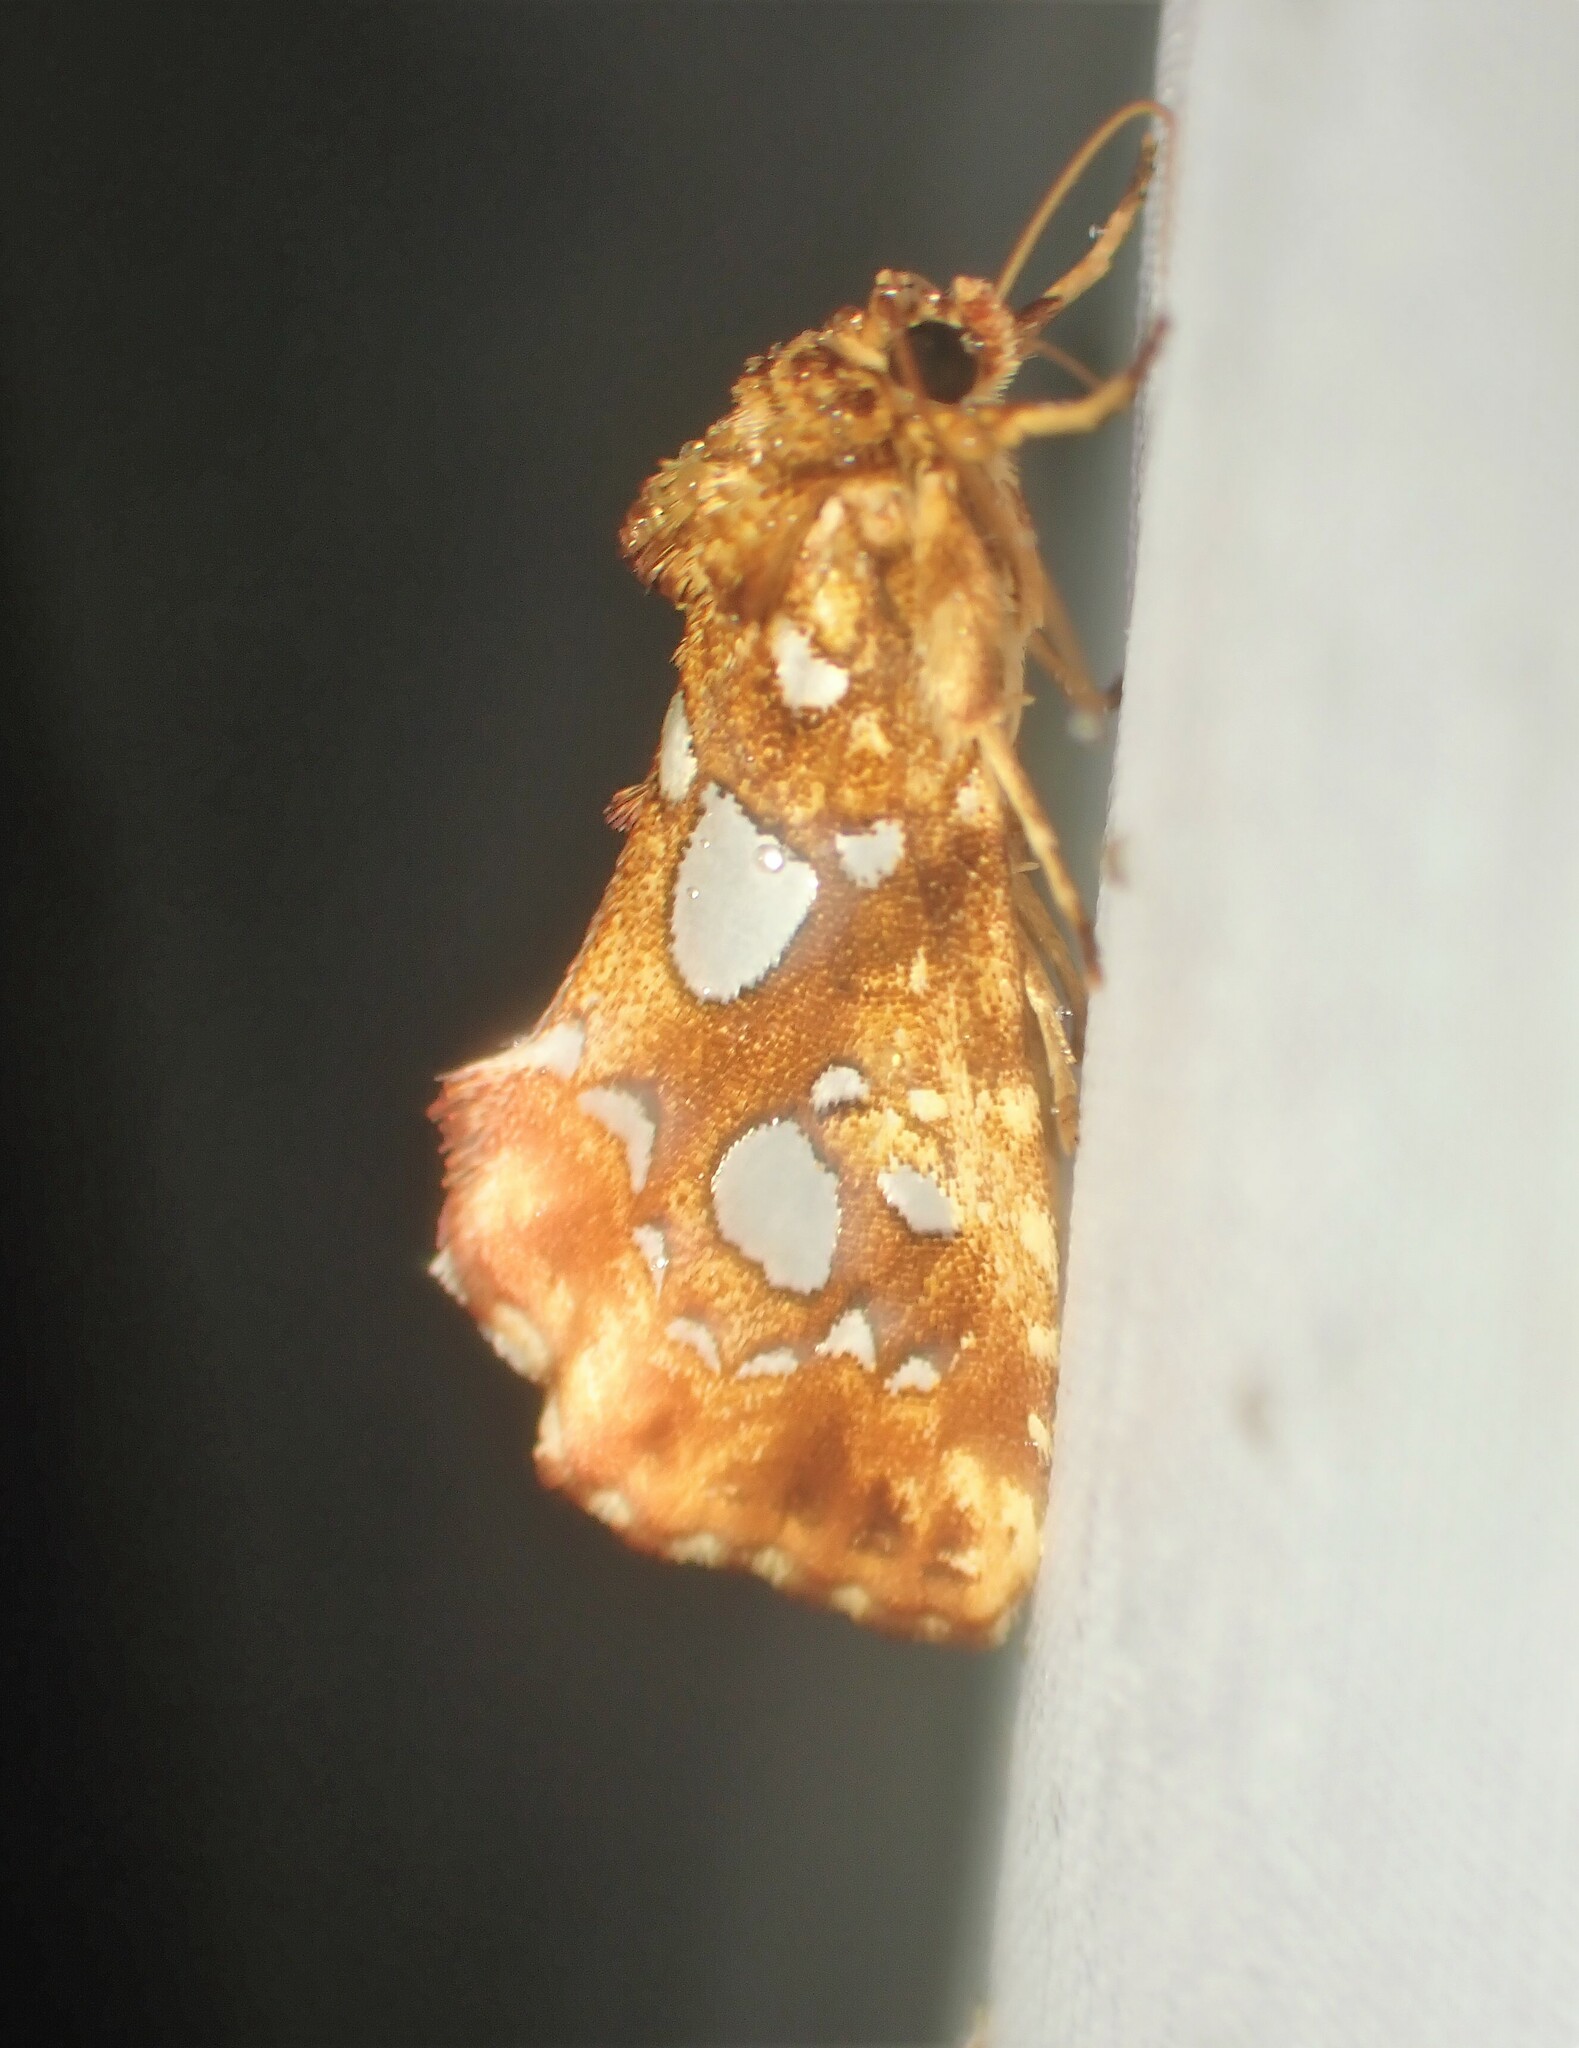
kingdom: Animalia
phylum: Arthropoda
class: Insecta
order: Lepidoptera
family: Noctuidae
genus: Callopistria
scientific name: Callopistria cordata
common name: Silver-spotted fern moth
